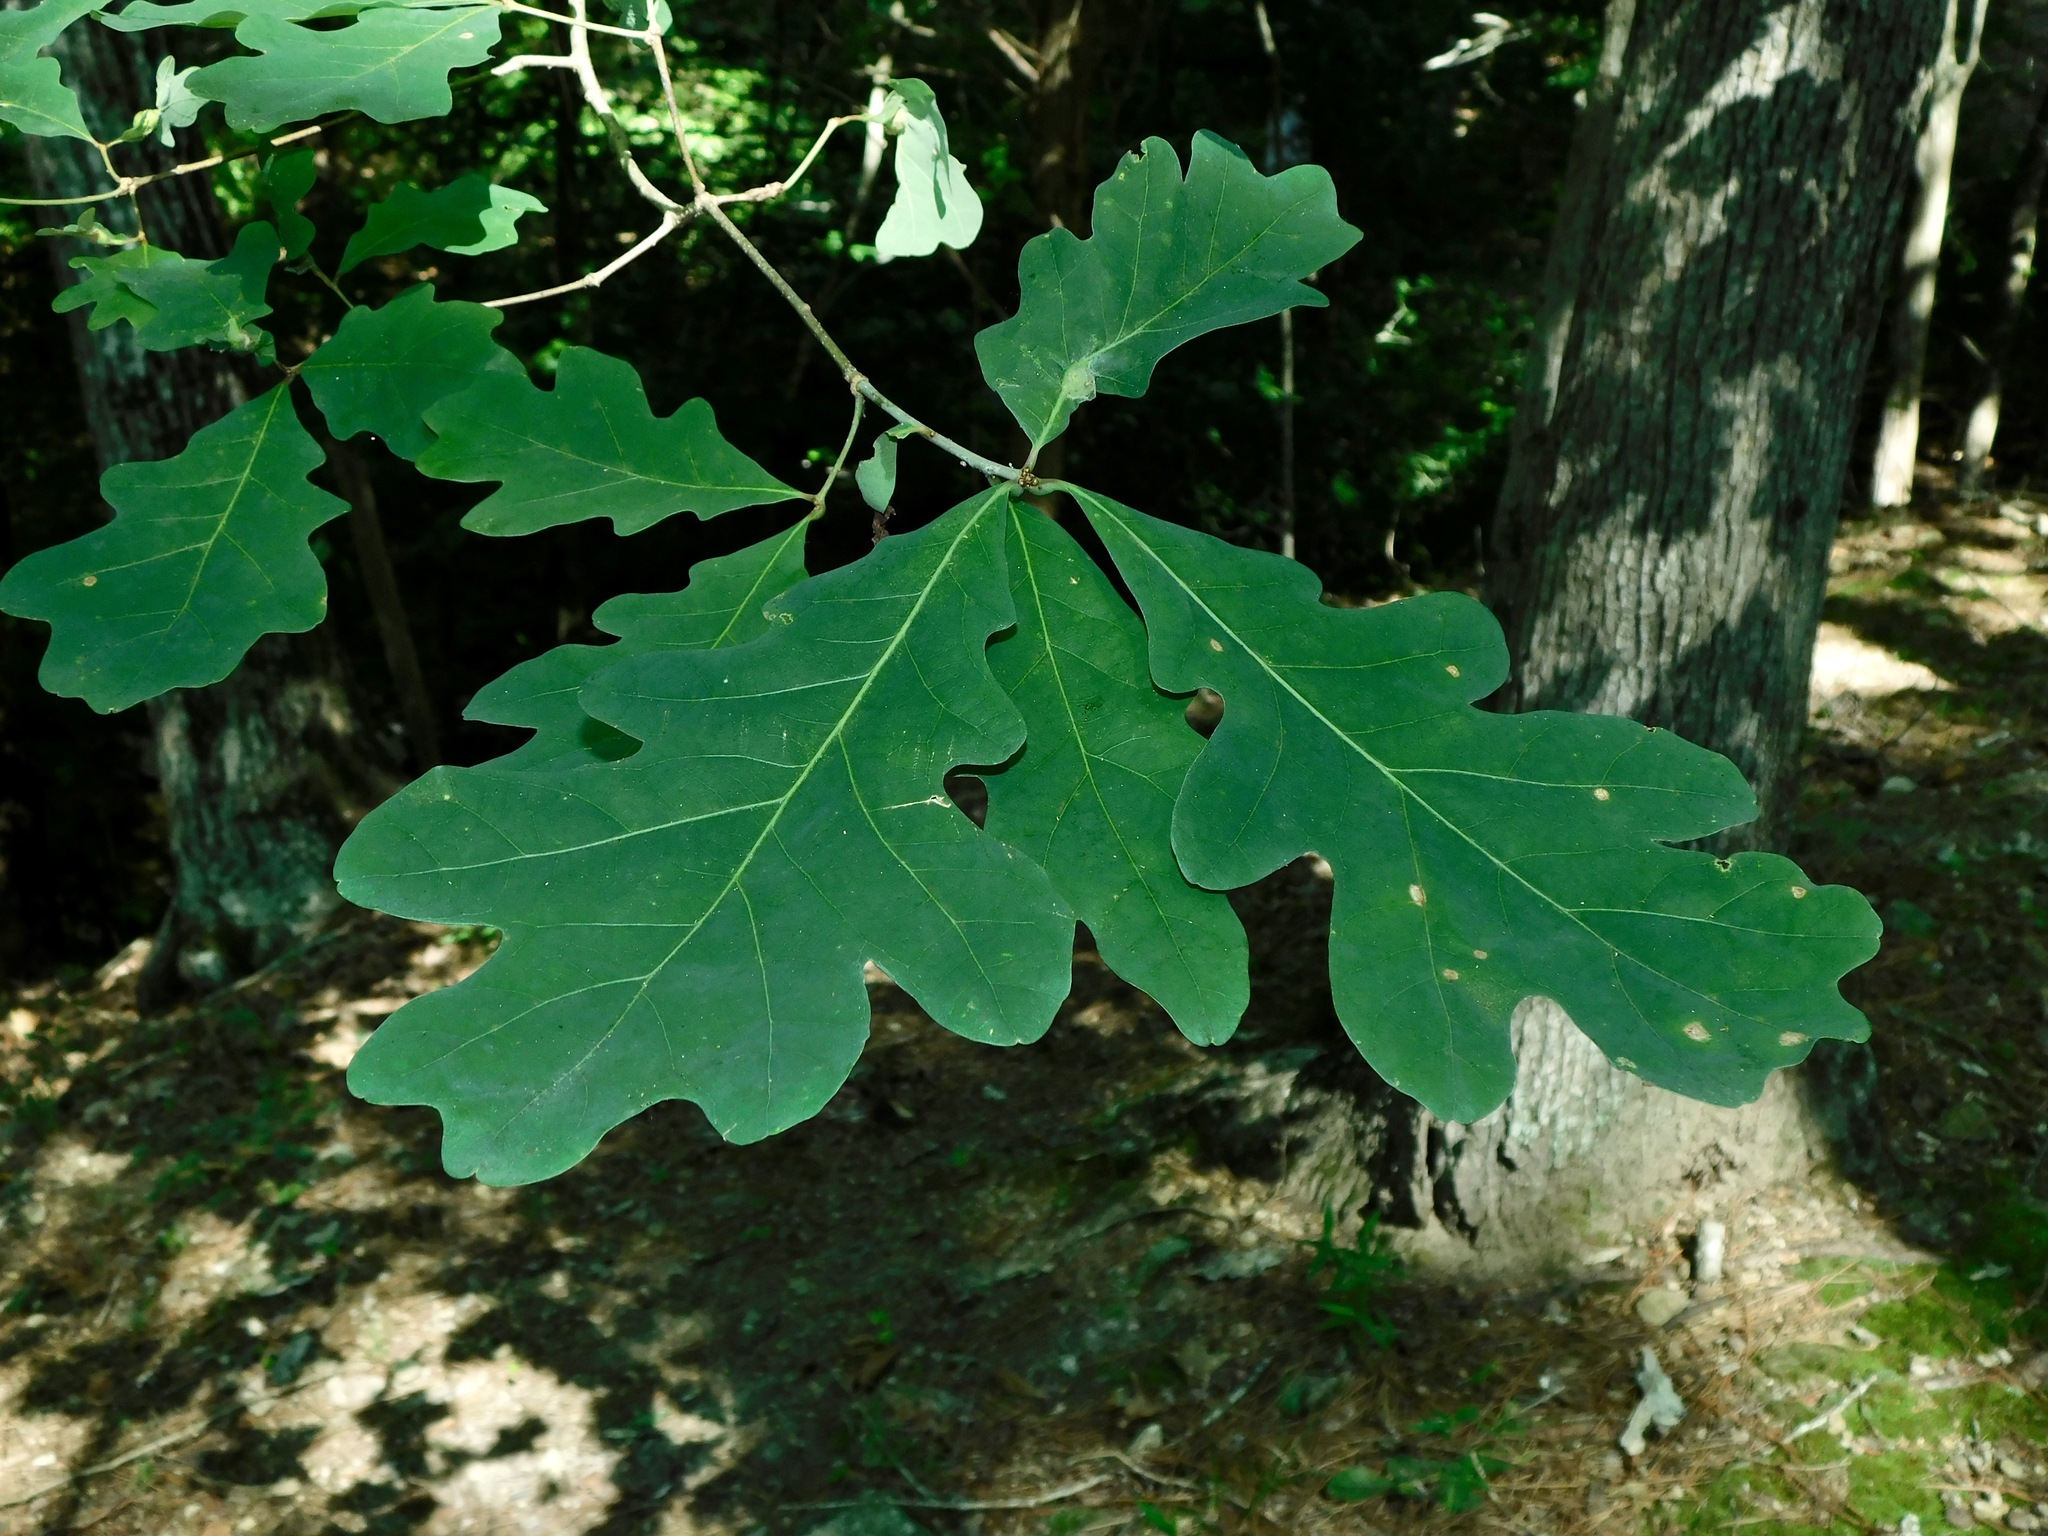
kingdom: Plantae
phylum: Tracheophyta
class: Magnoliopsida
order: Fagales
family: Fagaceae
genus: Quercus
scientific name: Quercus alba
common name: White oak
